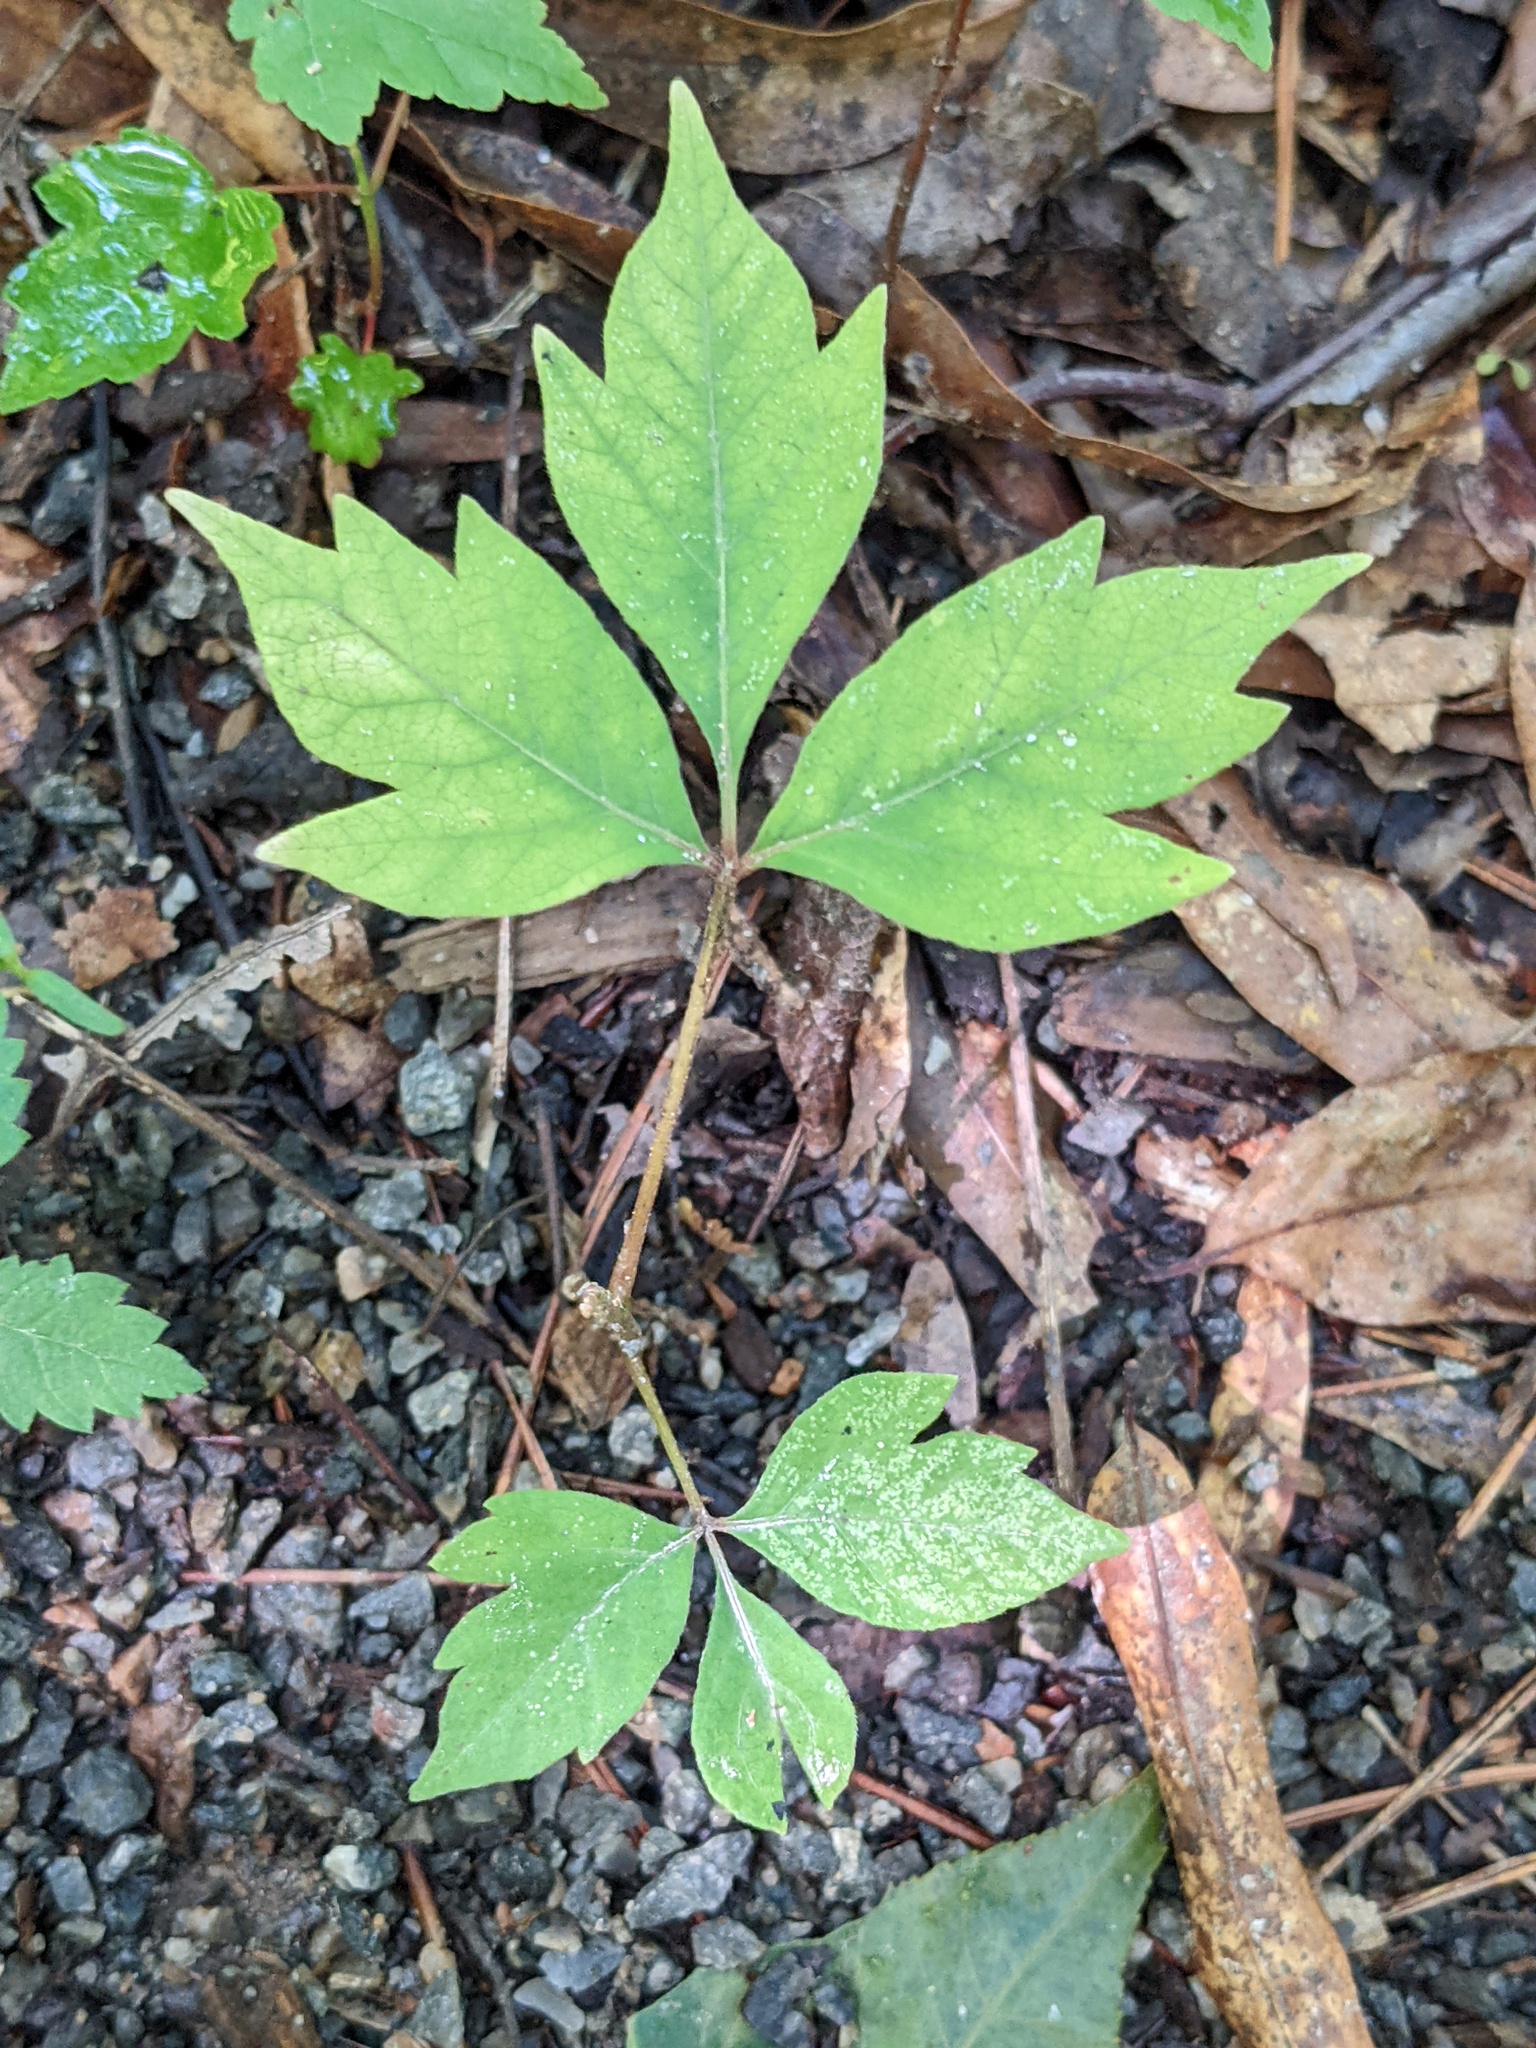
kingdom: Plantae
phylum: Tracheophyta
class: Magnoliopsida
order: Sapindales
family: Anacardiaceae
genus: Toxicodendron
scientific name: Toxicodendron radicans
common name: Poison ivy
